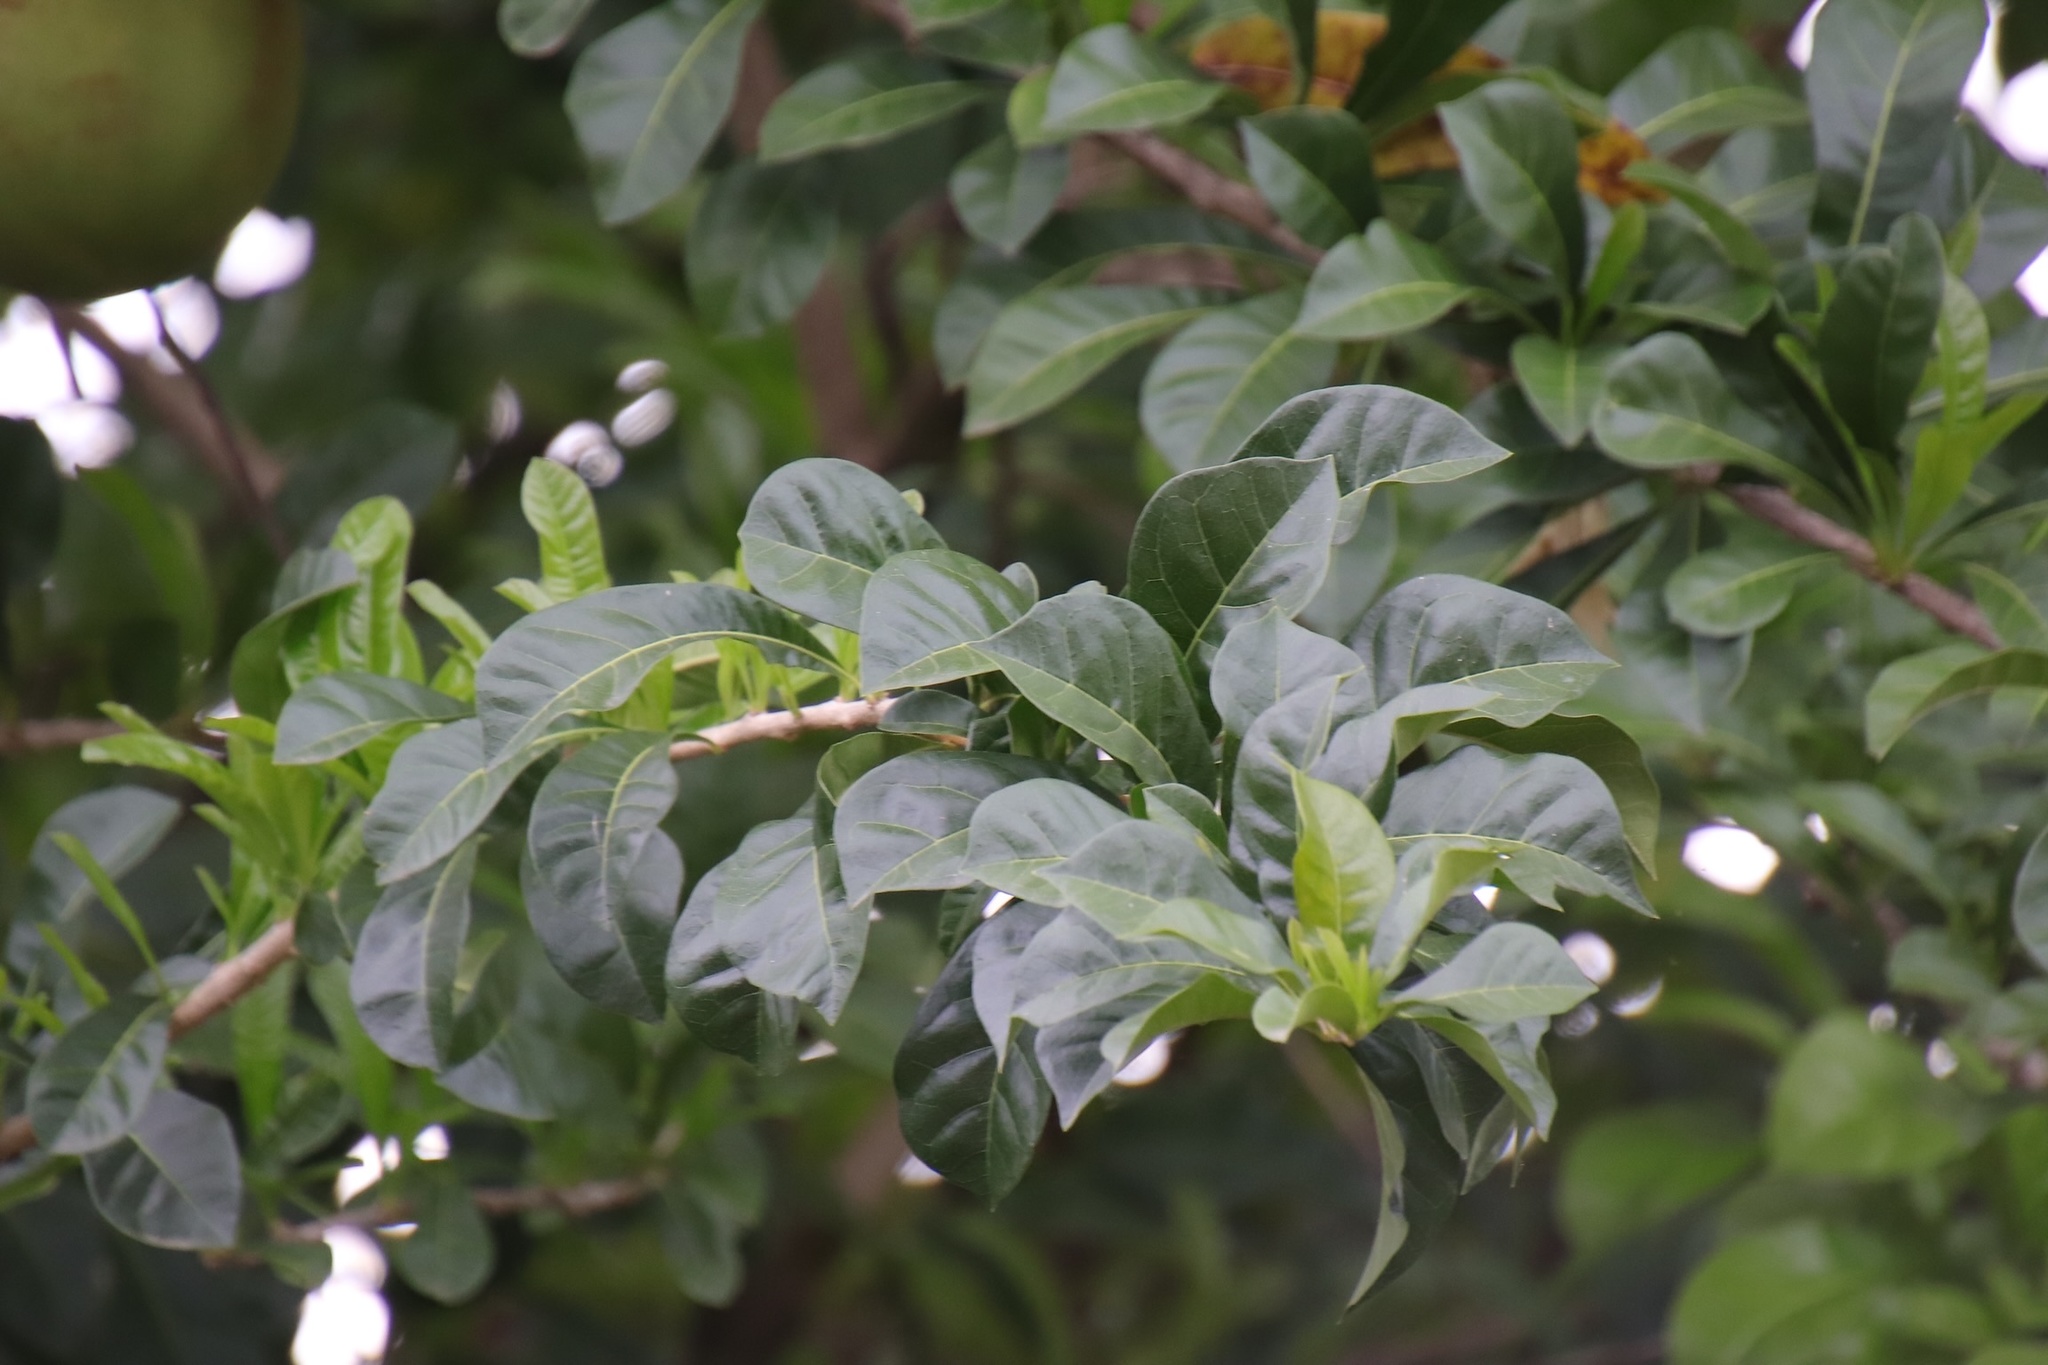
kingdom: Plantae
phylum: Tracheophyta
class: Magnoliopsida
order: Lamiales
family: Bignoniaceae
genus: Crescentia
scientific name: Crescentia cujete
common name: Calabash
